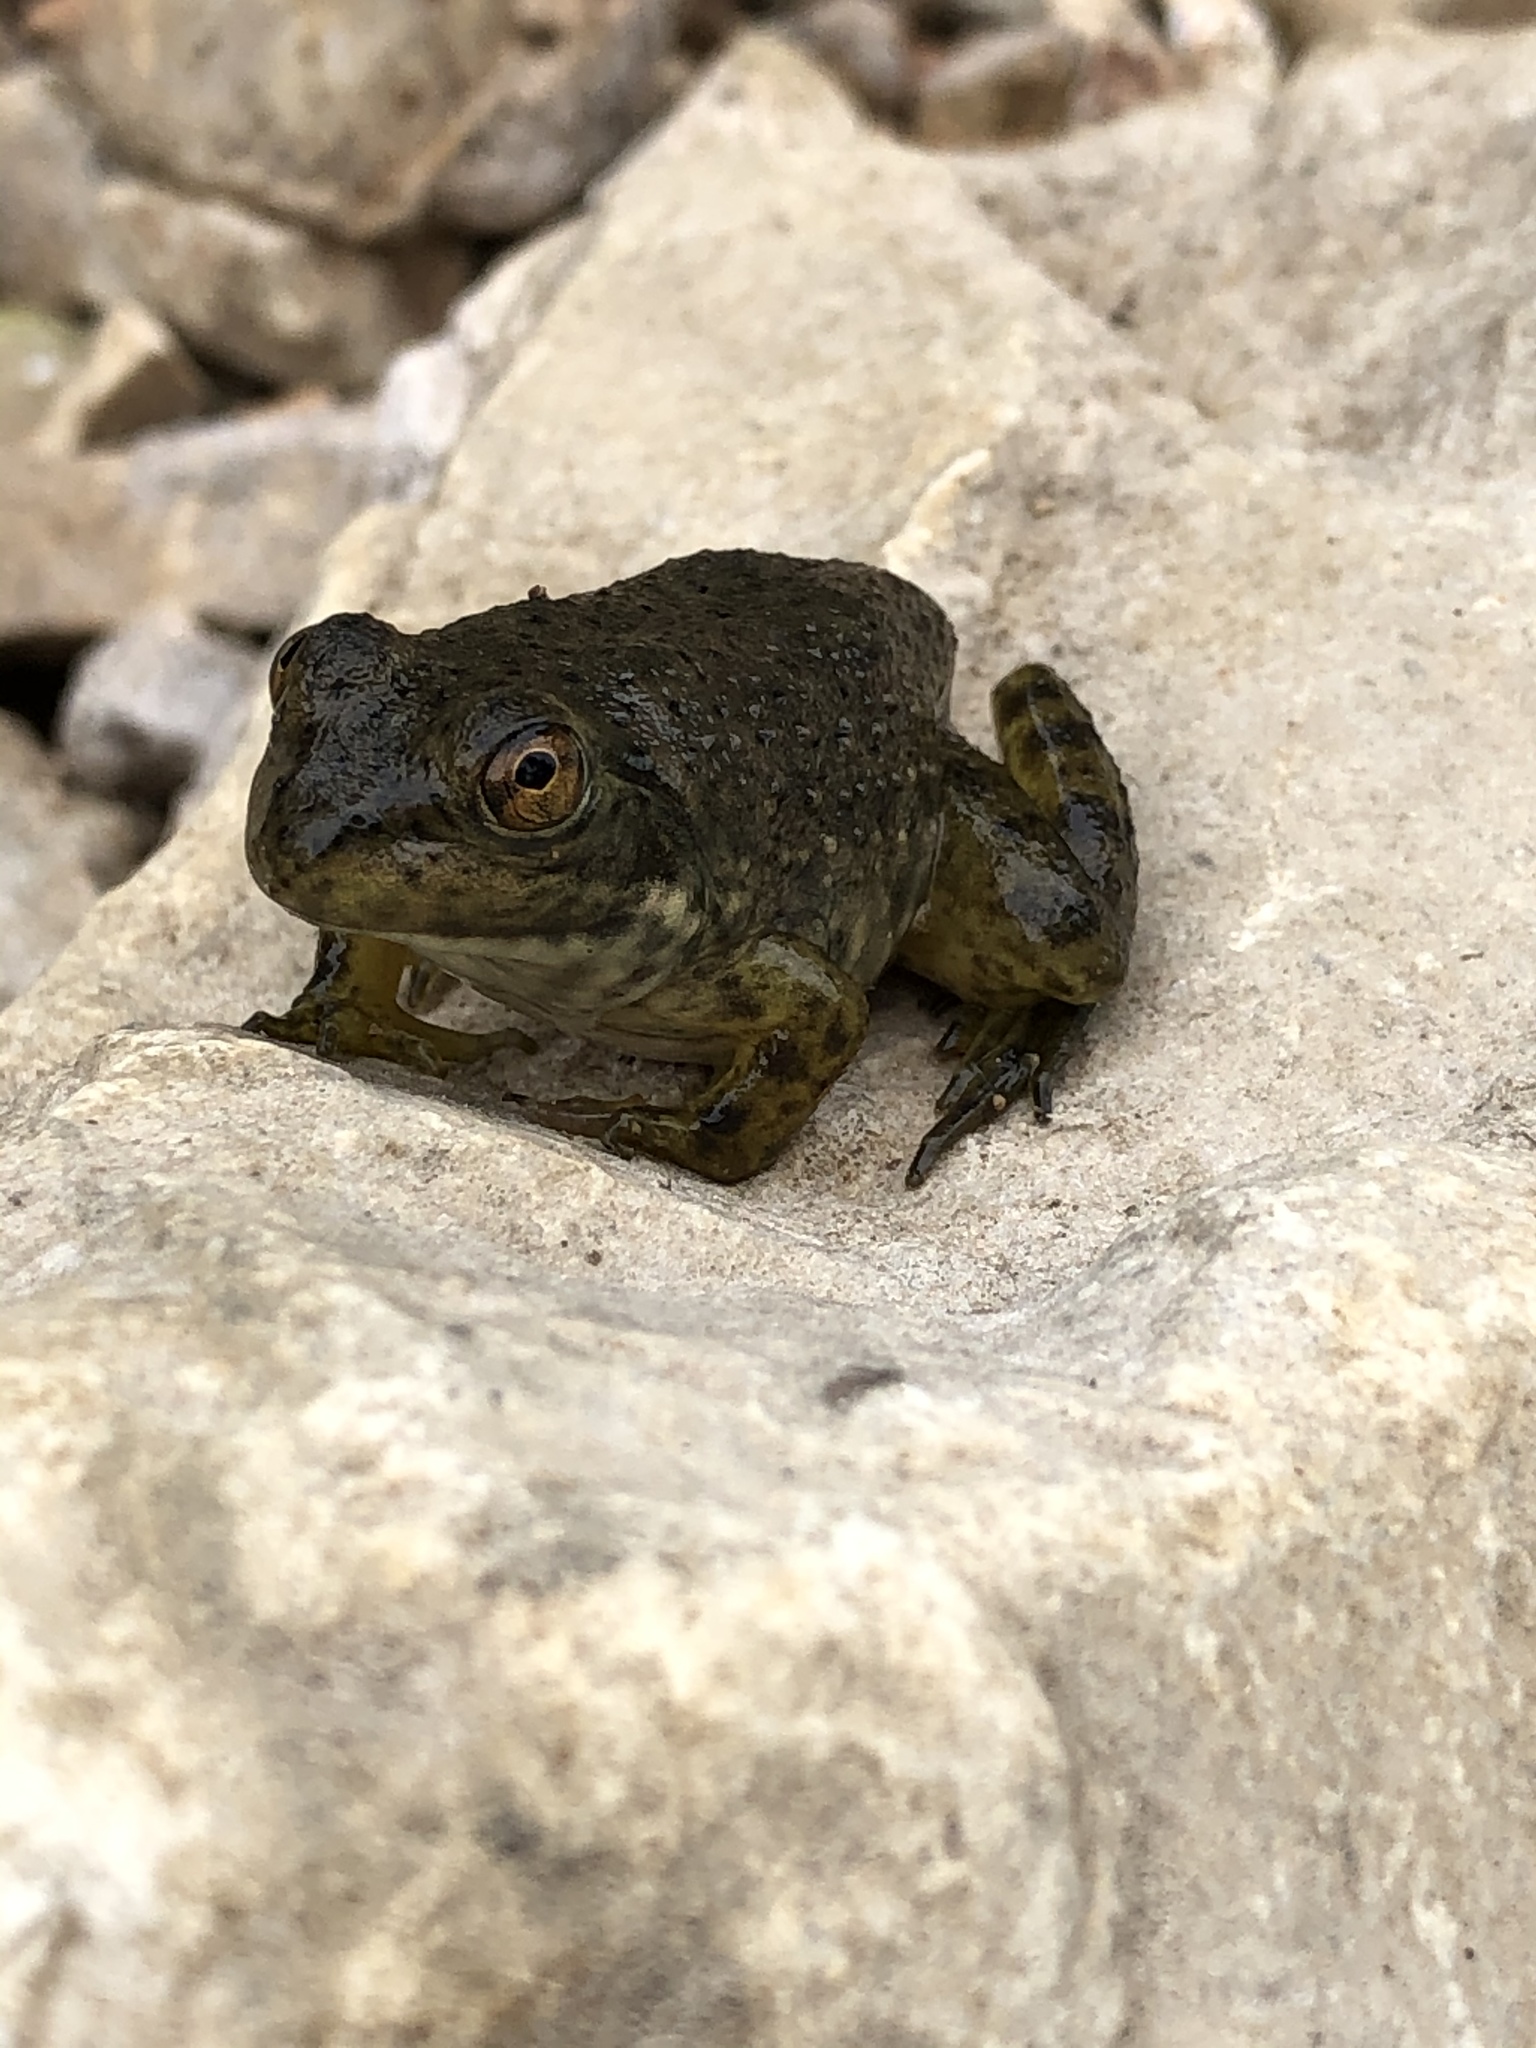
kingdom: Animalia
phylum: Chordata
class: Amphibia
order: Anura
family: Ranidae
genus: Lithobates
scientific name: Lithobates catesbeianus
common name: American bullfrog
